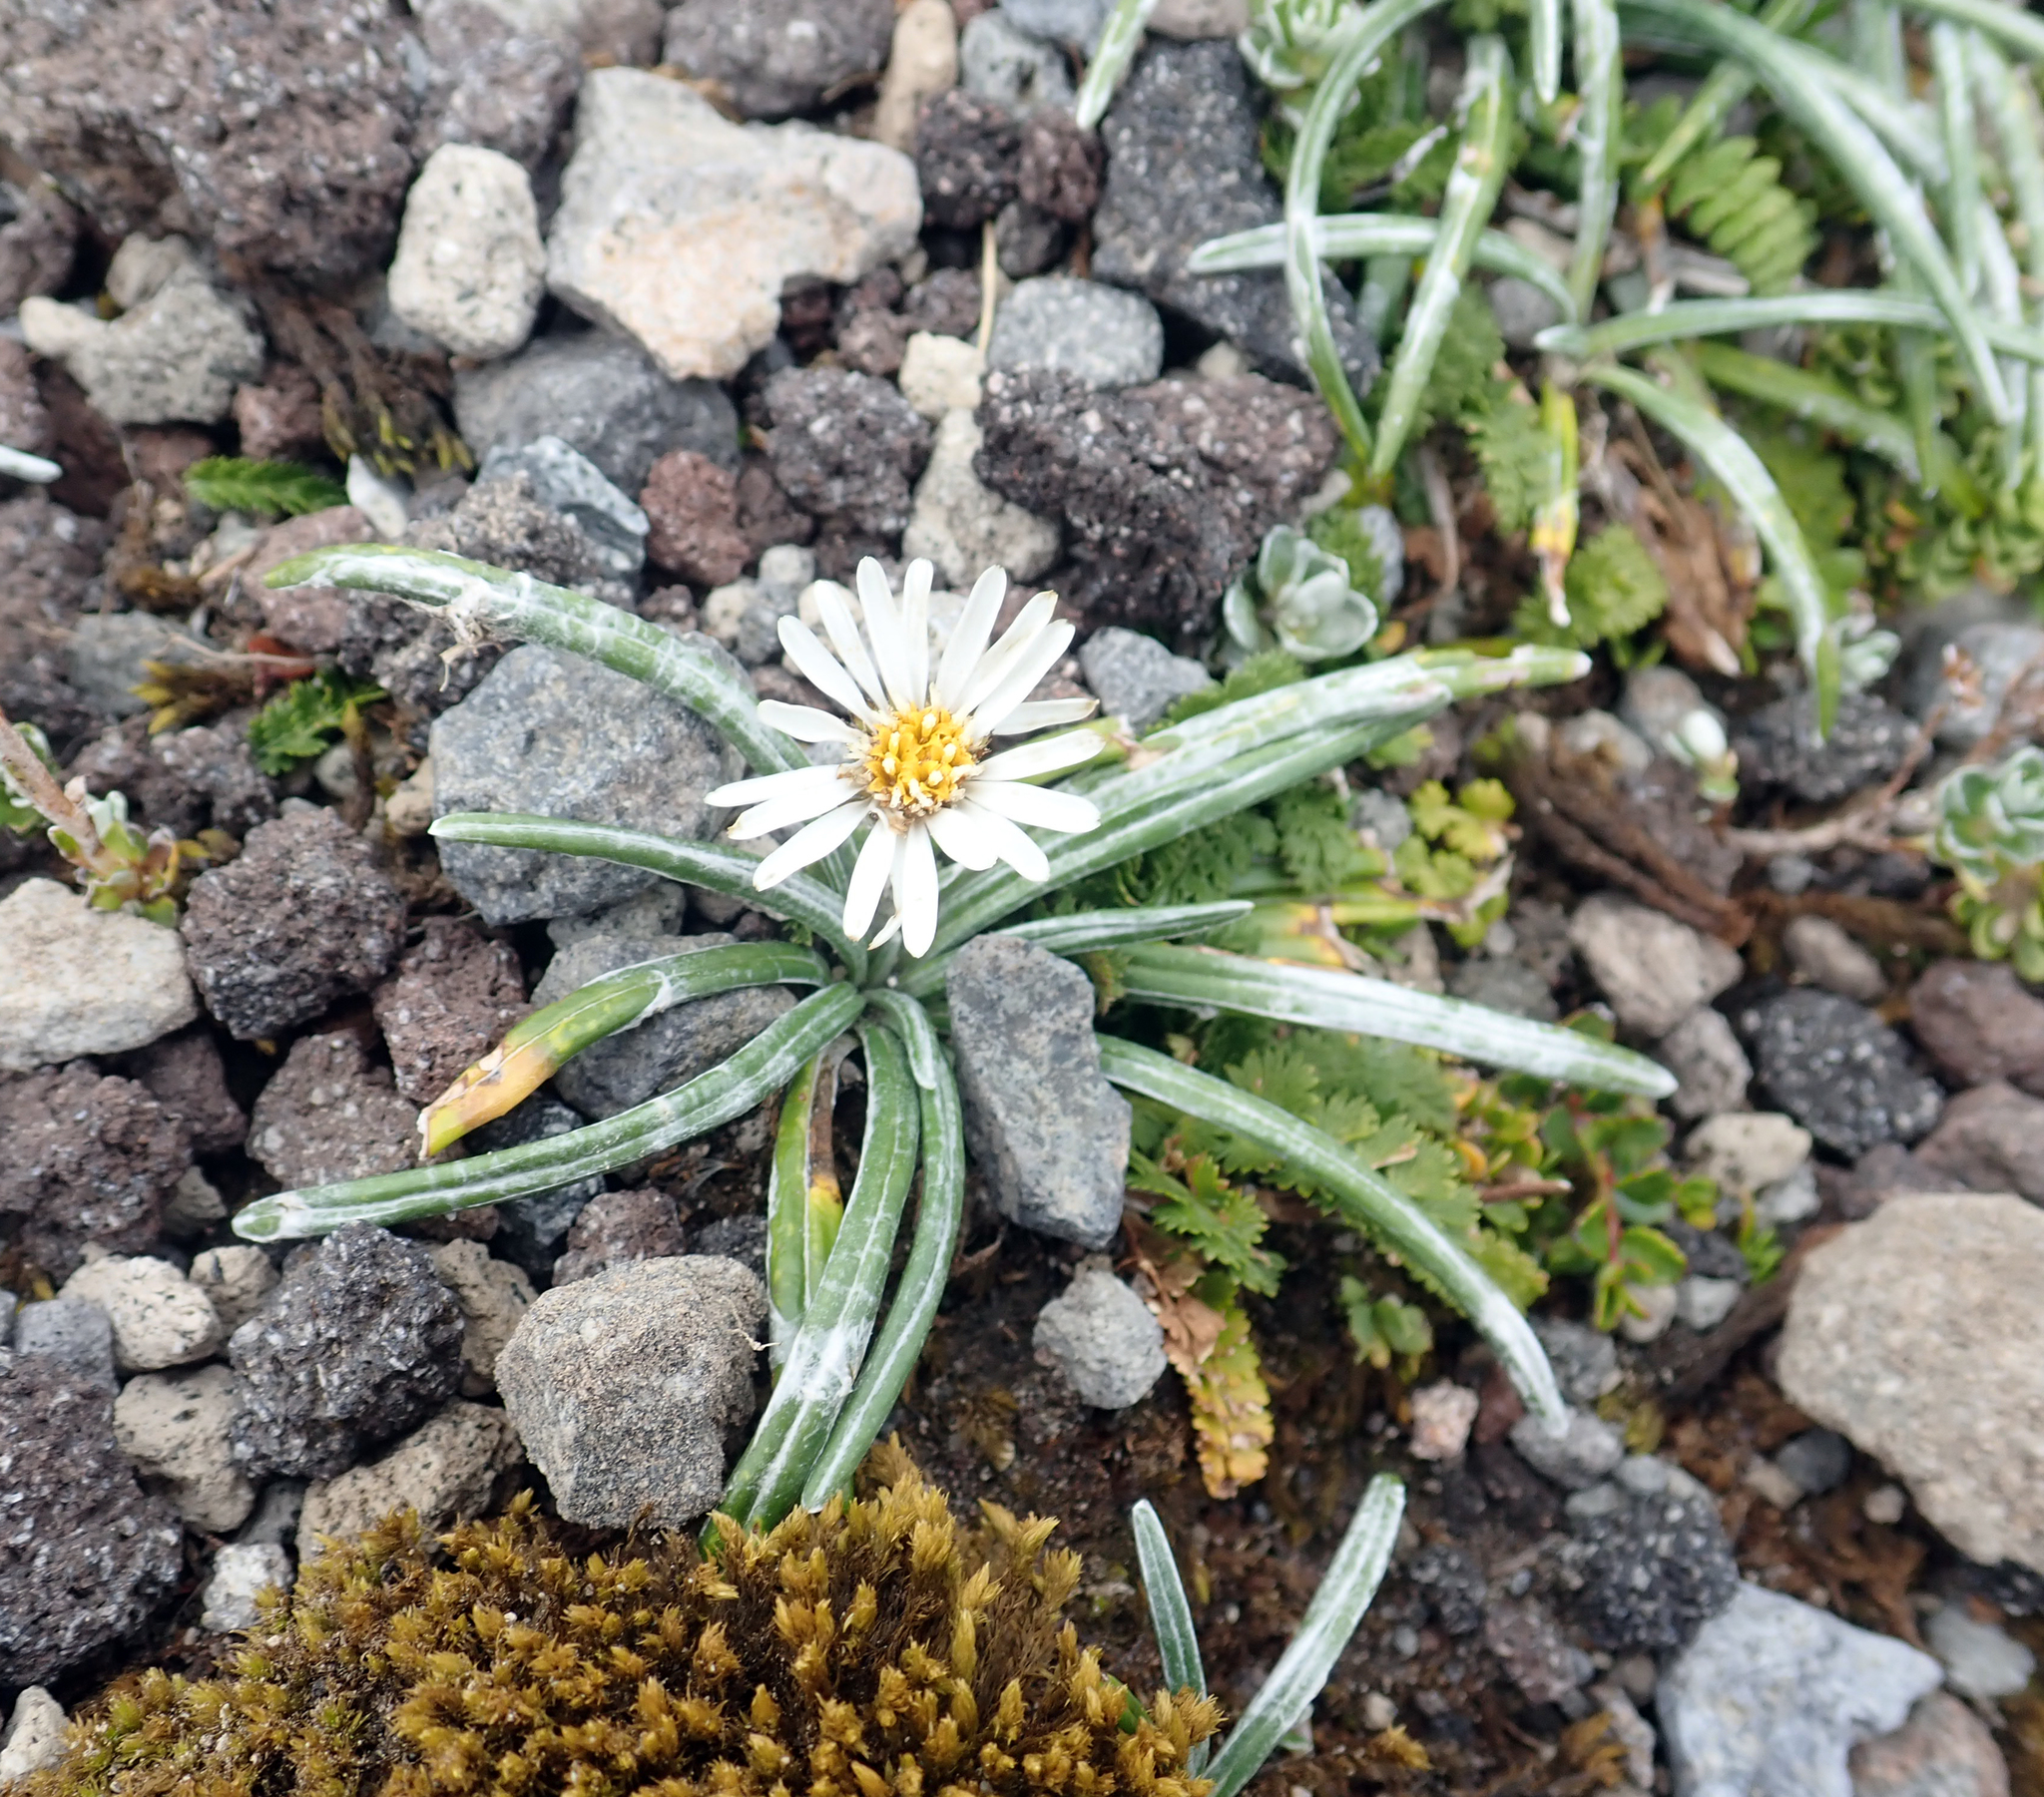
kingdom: Plantae
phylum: Tracheophyta
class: Magnoliopsida
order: Asterales
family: Asteraceae
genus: Celmisia
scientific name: Celmisia major
